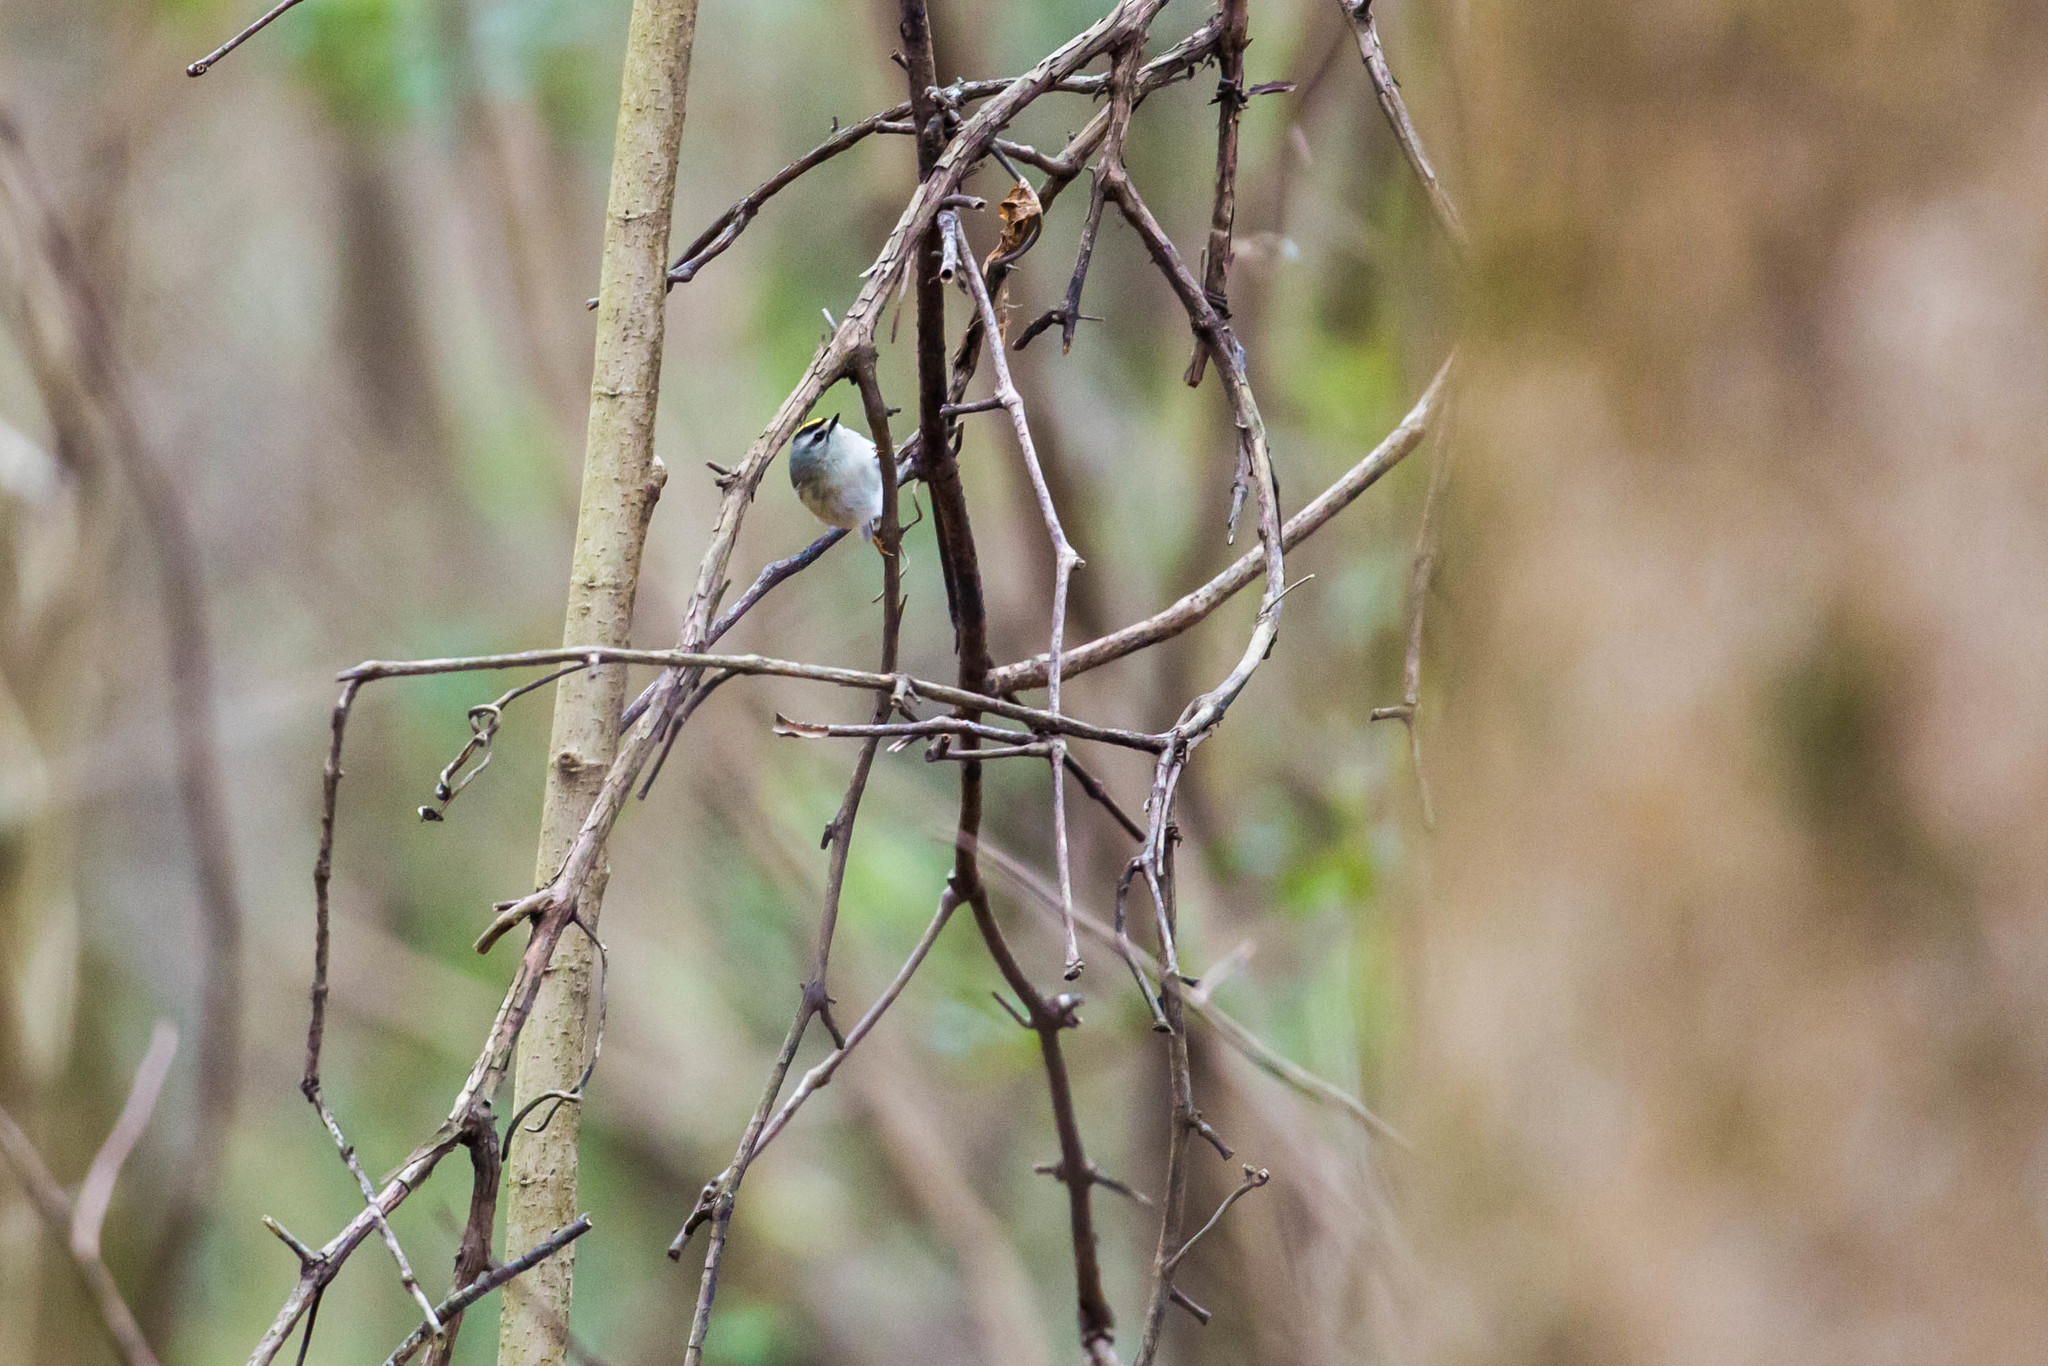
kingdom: Animalia
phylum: Chordata
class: Aves
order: Passeriformes
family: Regulidae
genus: Regulus
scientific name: Regulus satrapa
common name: Golden-crowned kinglet
